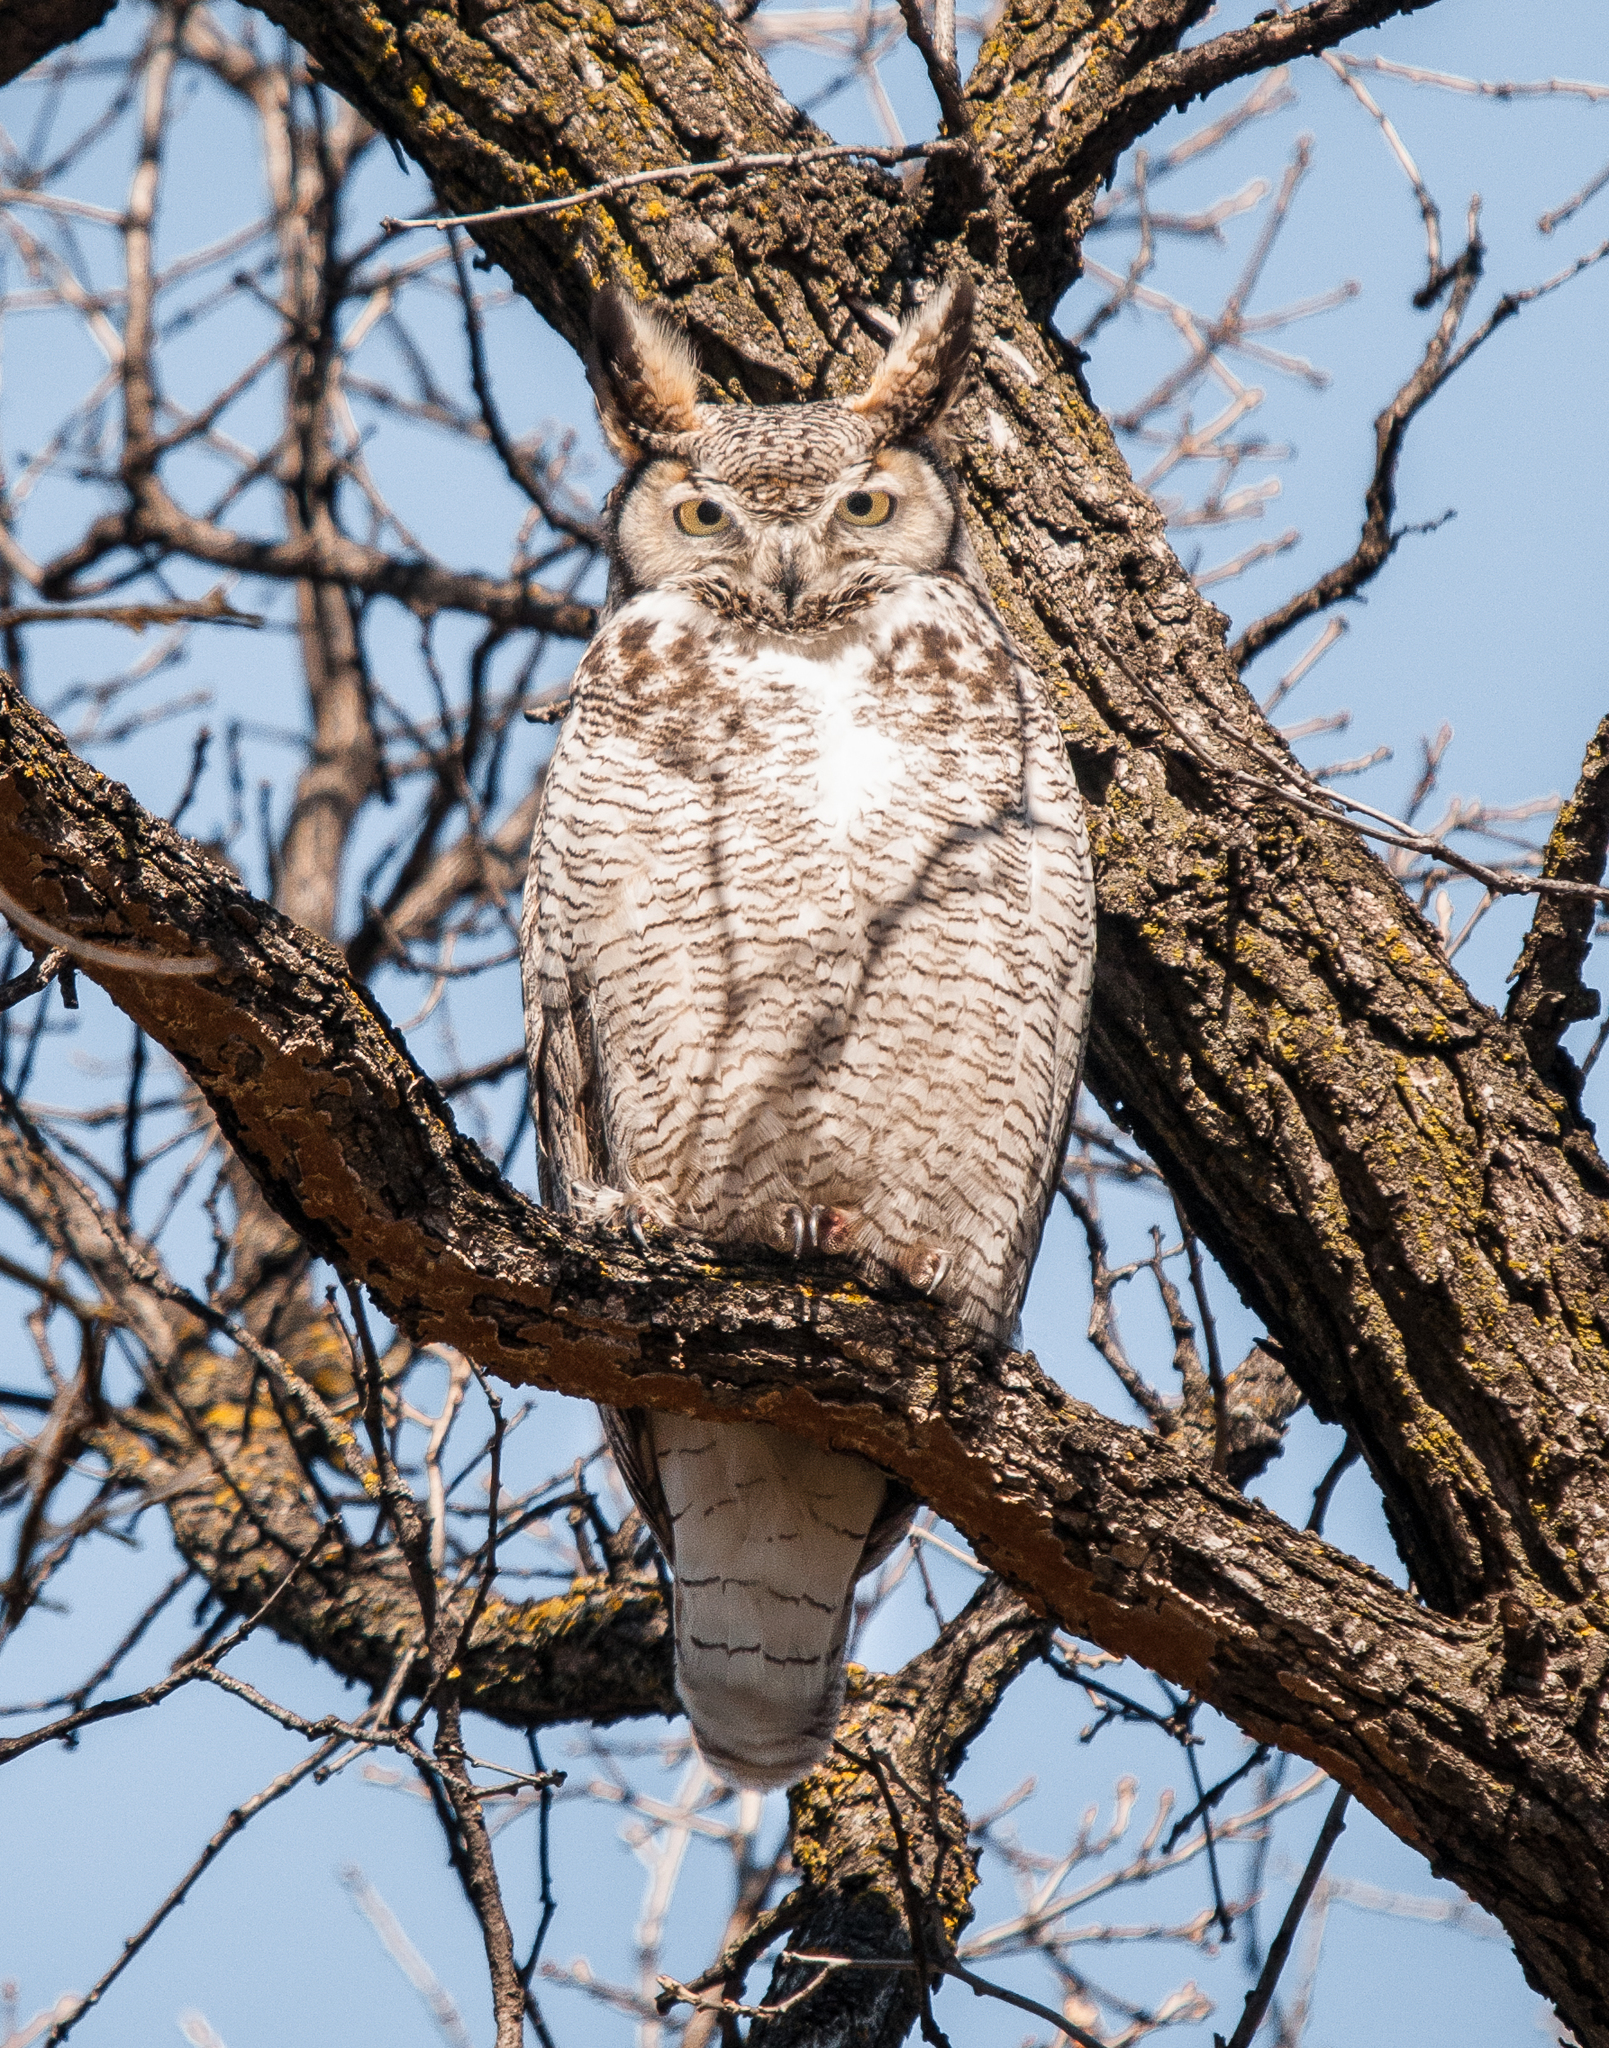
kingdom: Animalia
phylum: Chordata
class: Aves
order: Strigiformes
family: Strigidae
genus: Bubo
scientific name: Bubo virginianus
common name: Great horned owl
